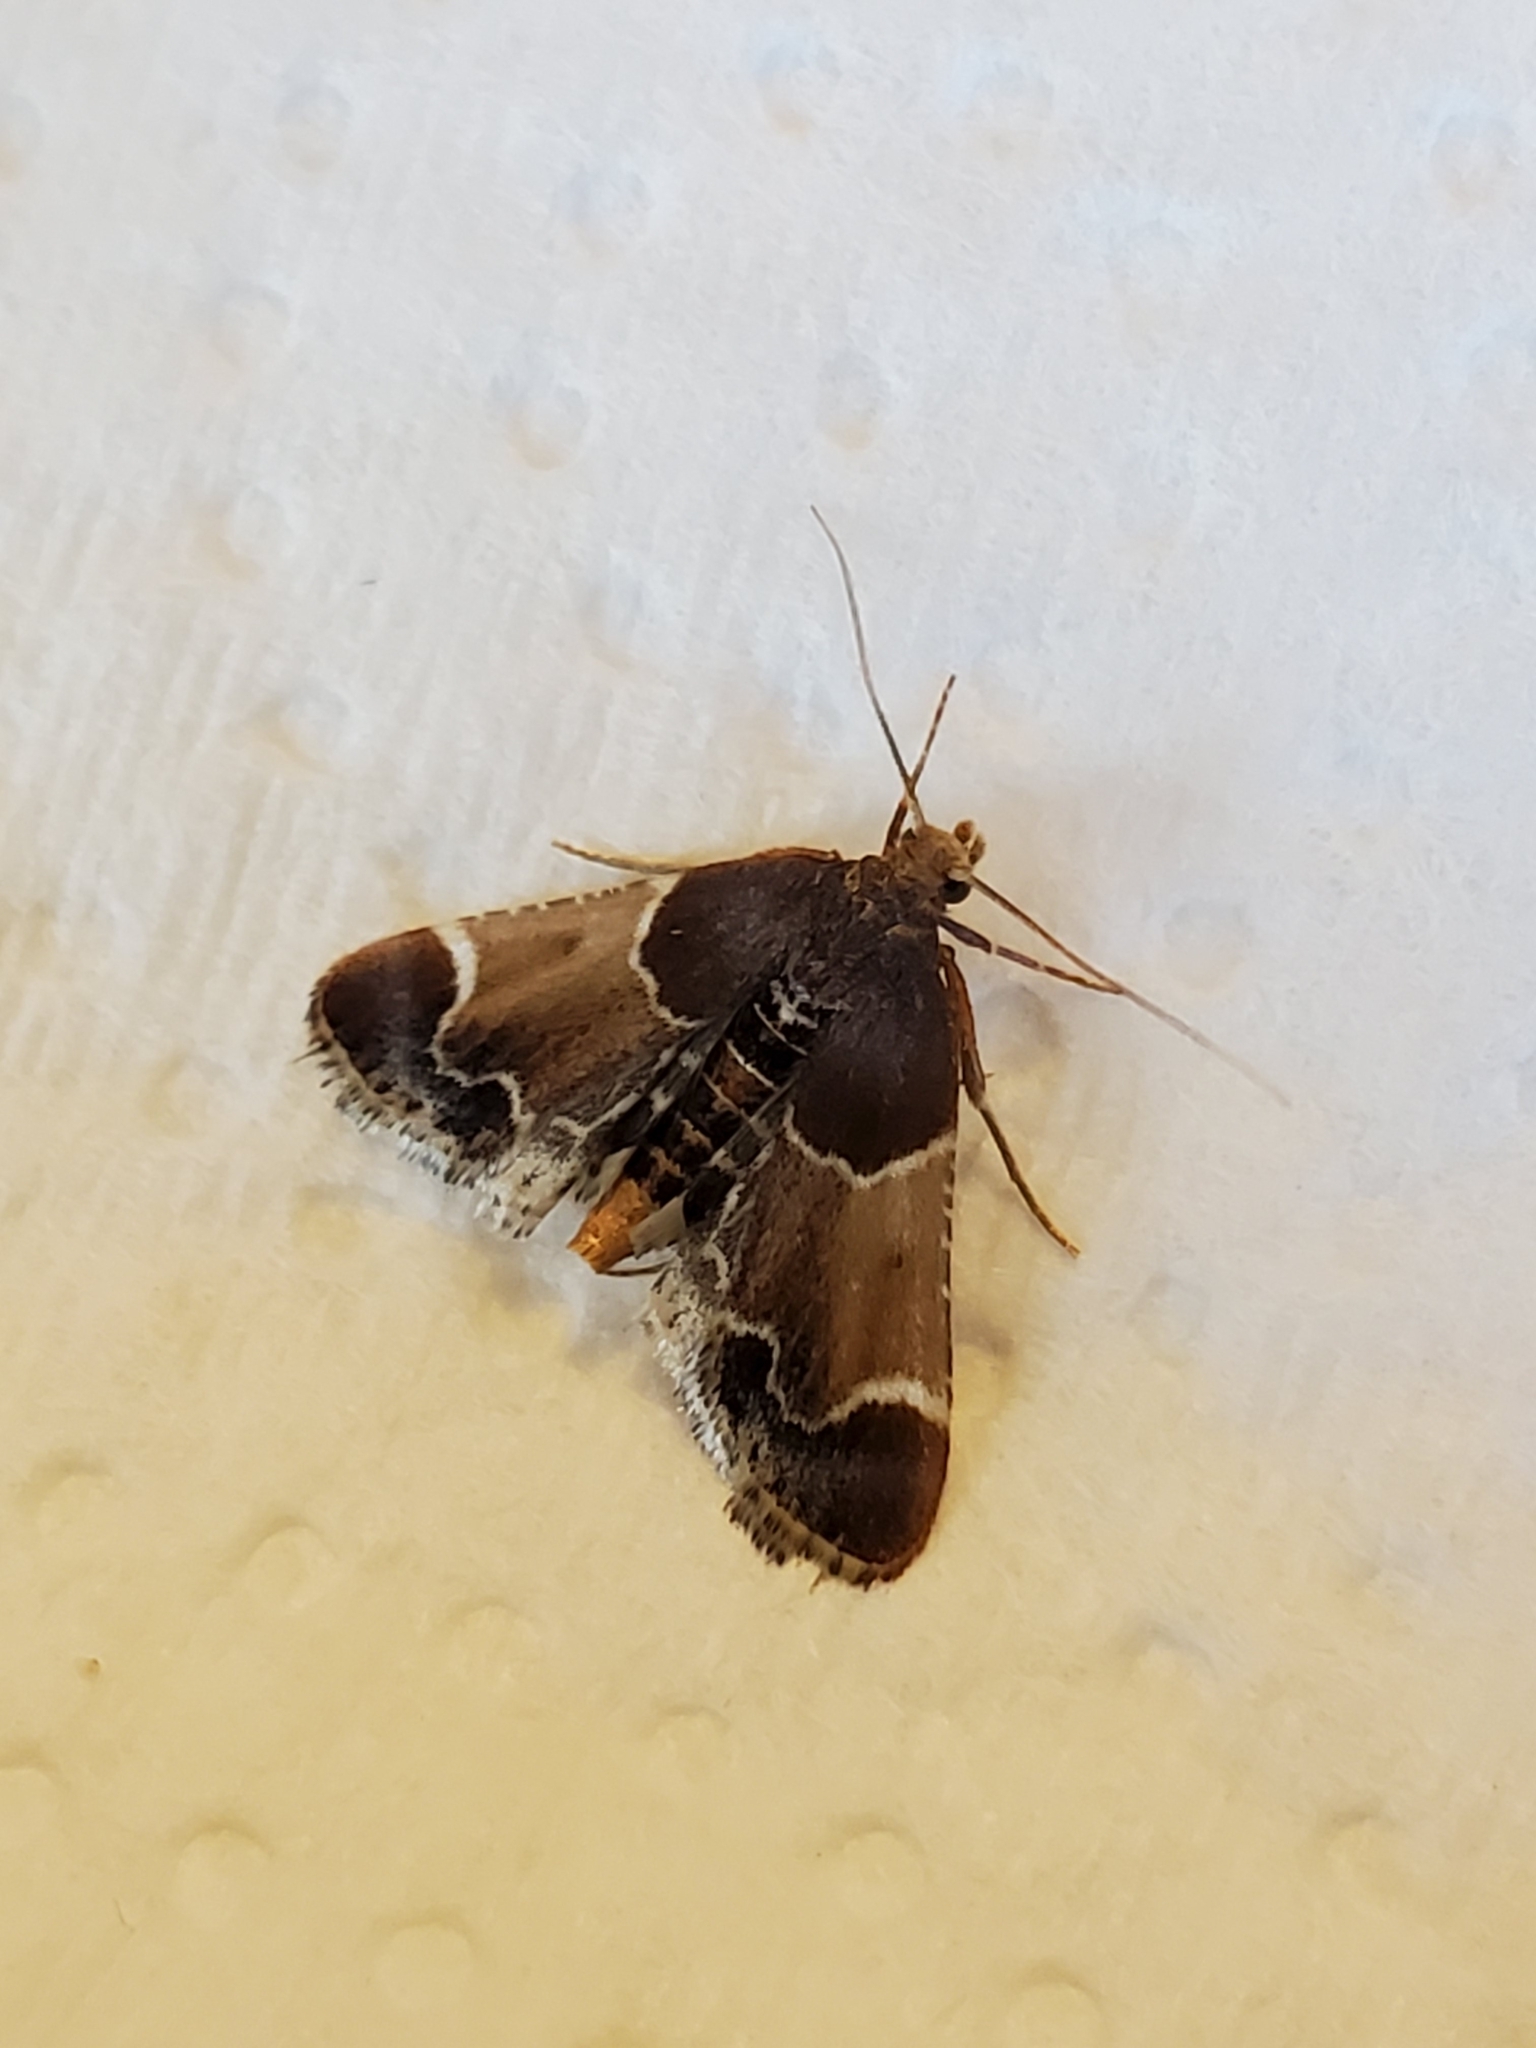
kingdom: Animalia
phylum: Arthropoda
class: Insecta
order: Lepidoptera
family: Pyralidae
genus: Pyralis
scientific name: Pyralis farinalis
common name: Meal moth
